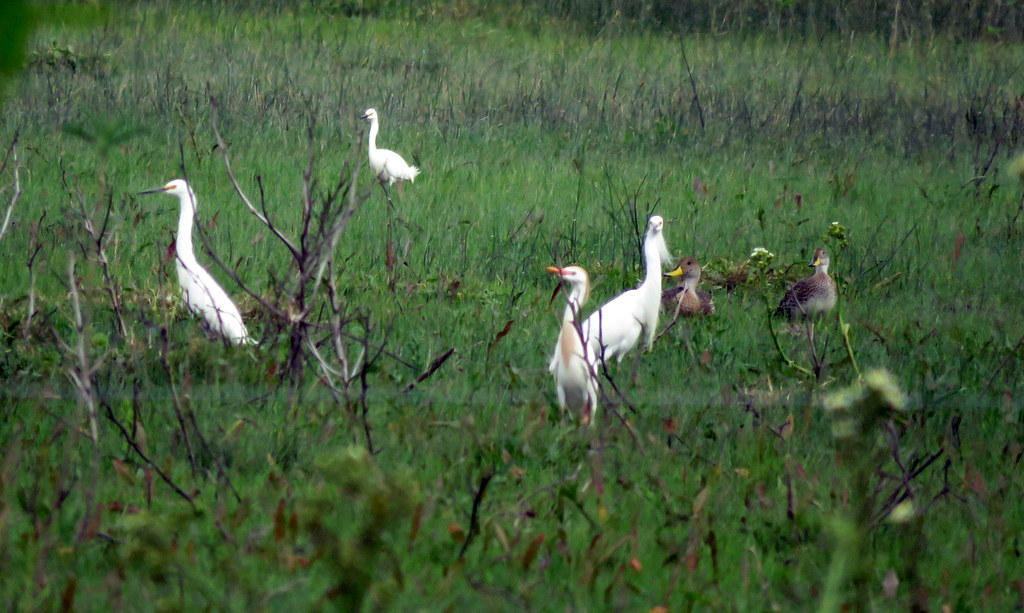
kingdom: Animalia
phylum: Chordata
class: Aves
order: Pelecaniformes
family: Ardeidae
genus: Bubulcus
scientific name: Bubulcus ibis
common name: Cattle egret
